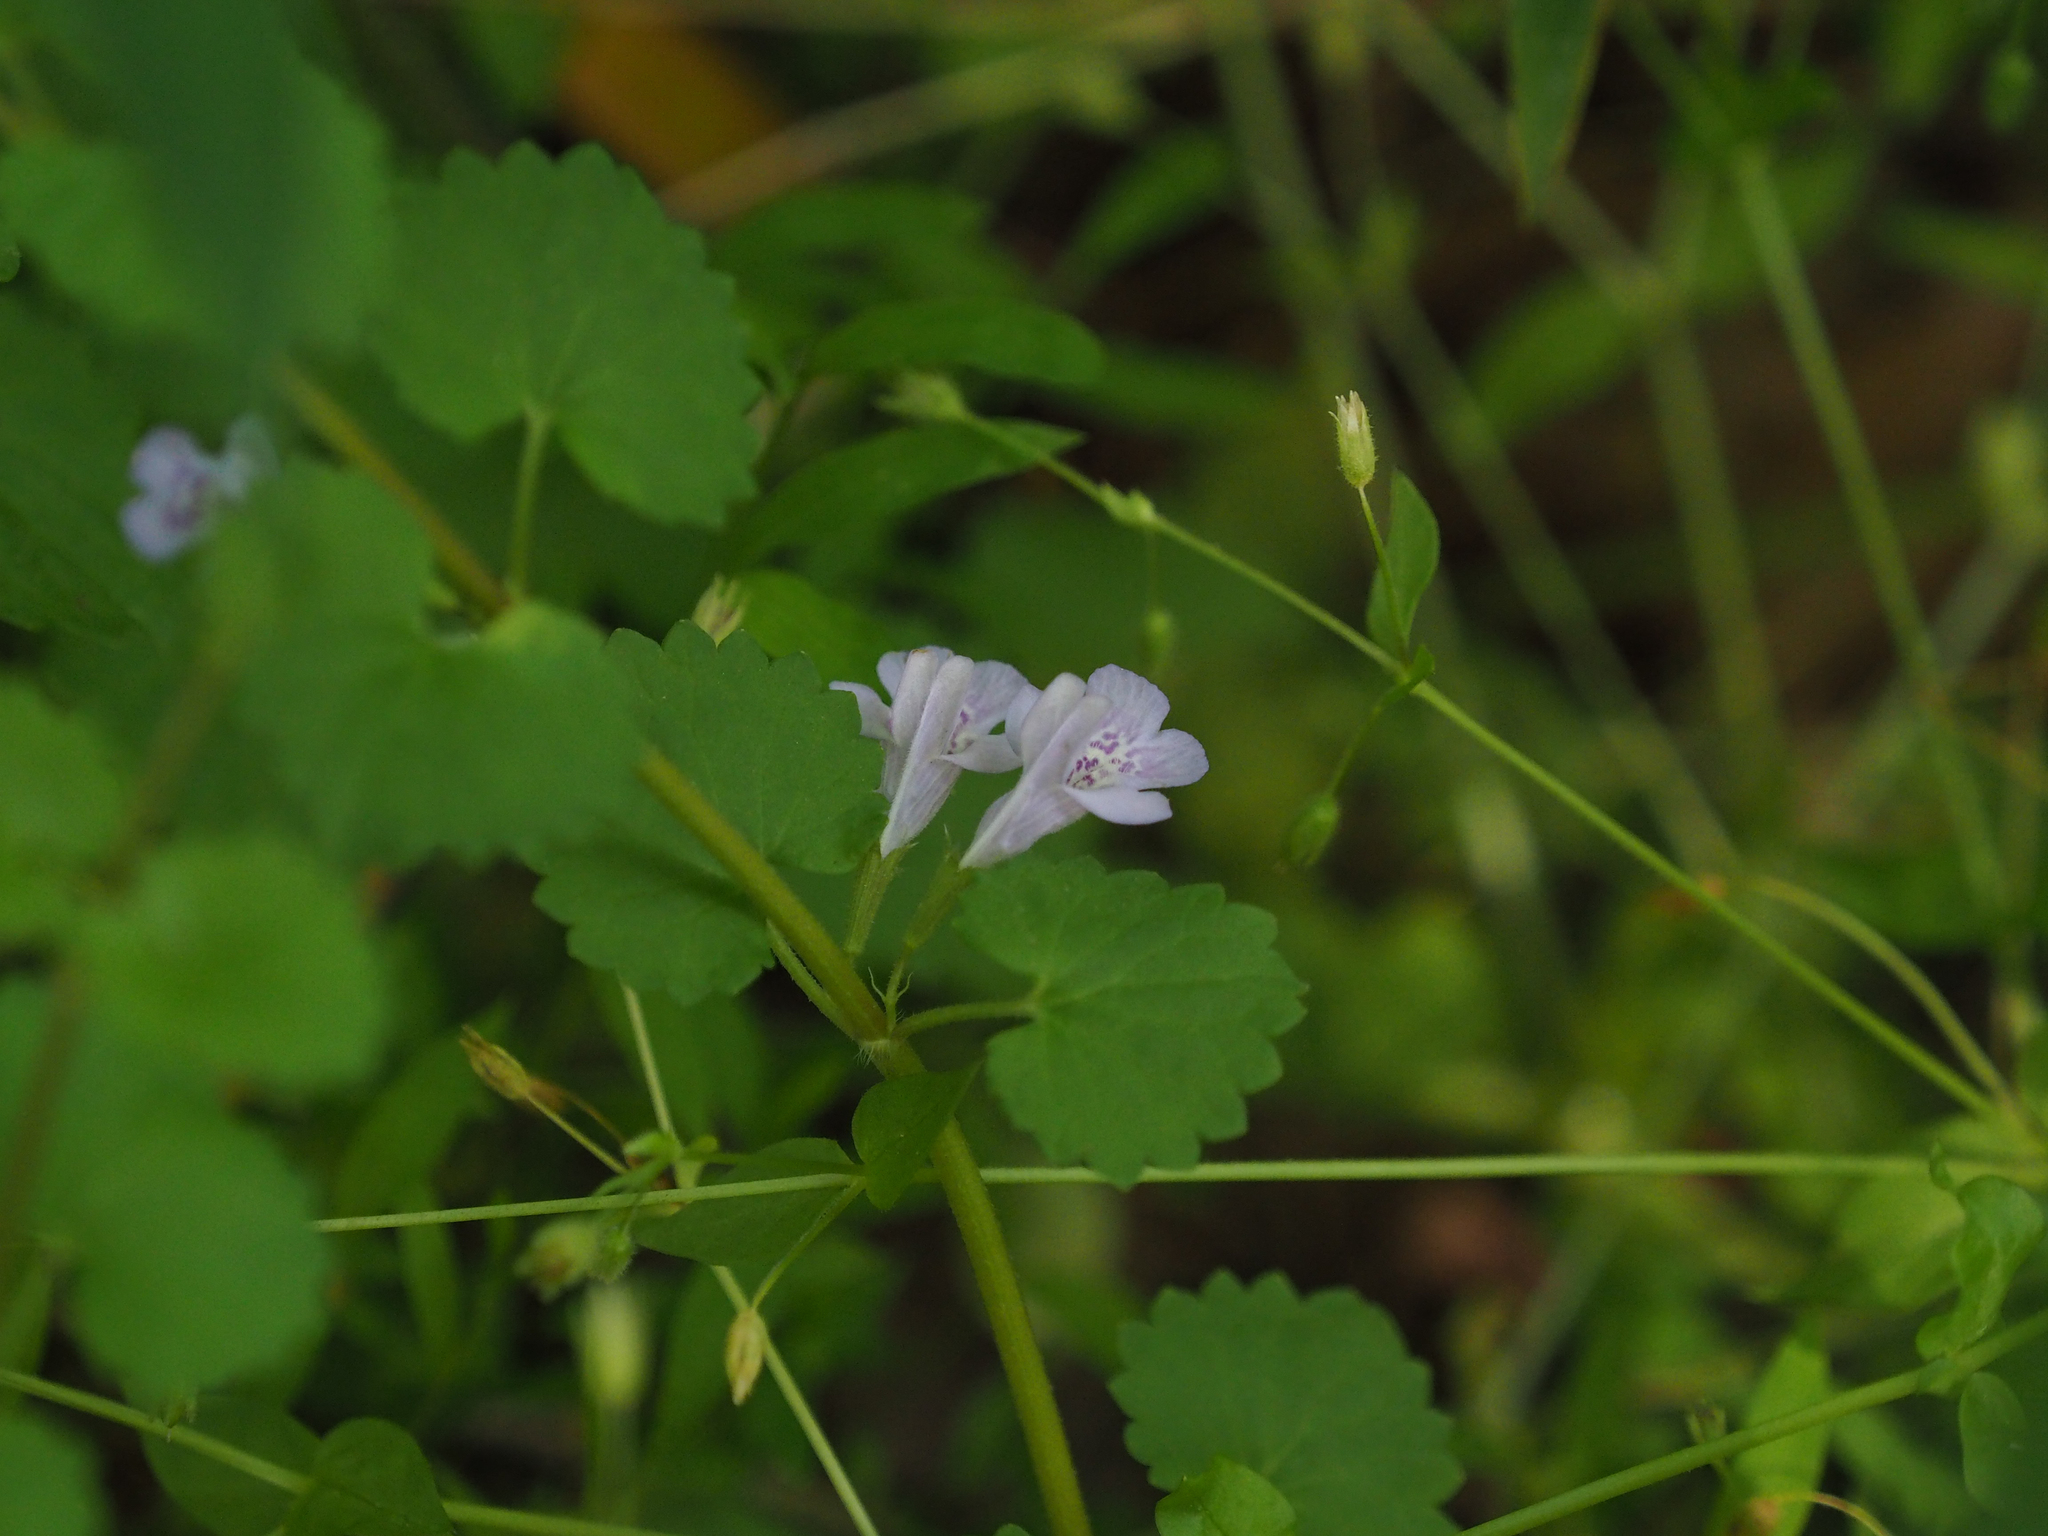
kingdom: Plantae
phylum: Tracheophyta
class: Magnoliopsida
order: Lamiales
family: Lamiaceae
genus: Glechoma
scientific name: Glechoma hederacea
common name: Ground ivy
